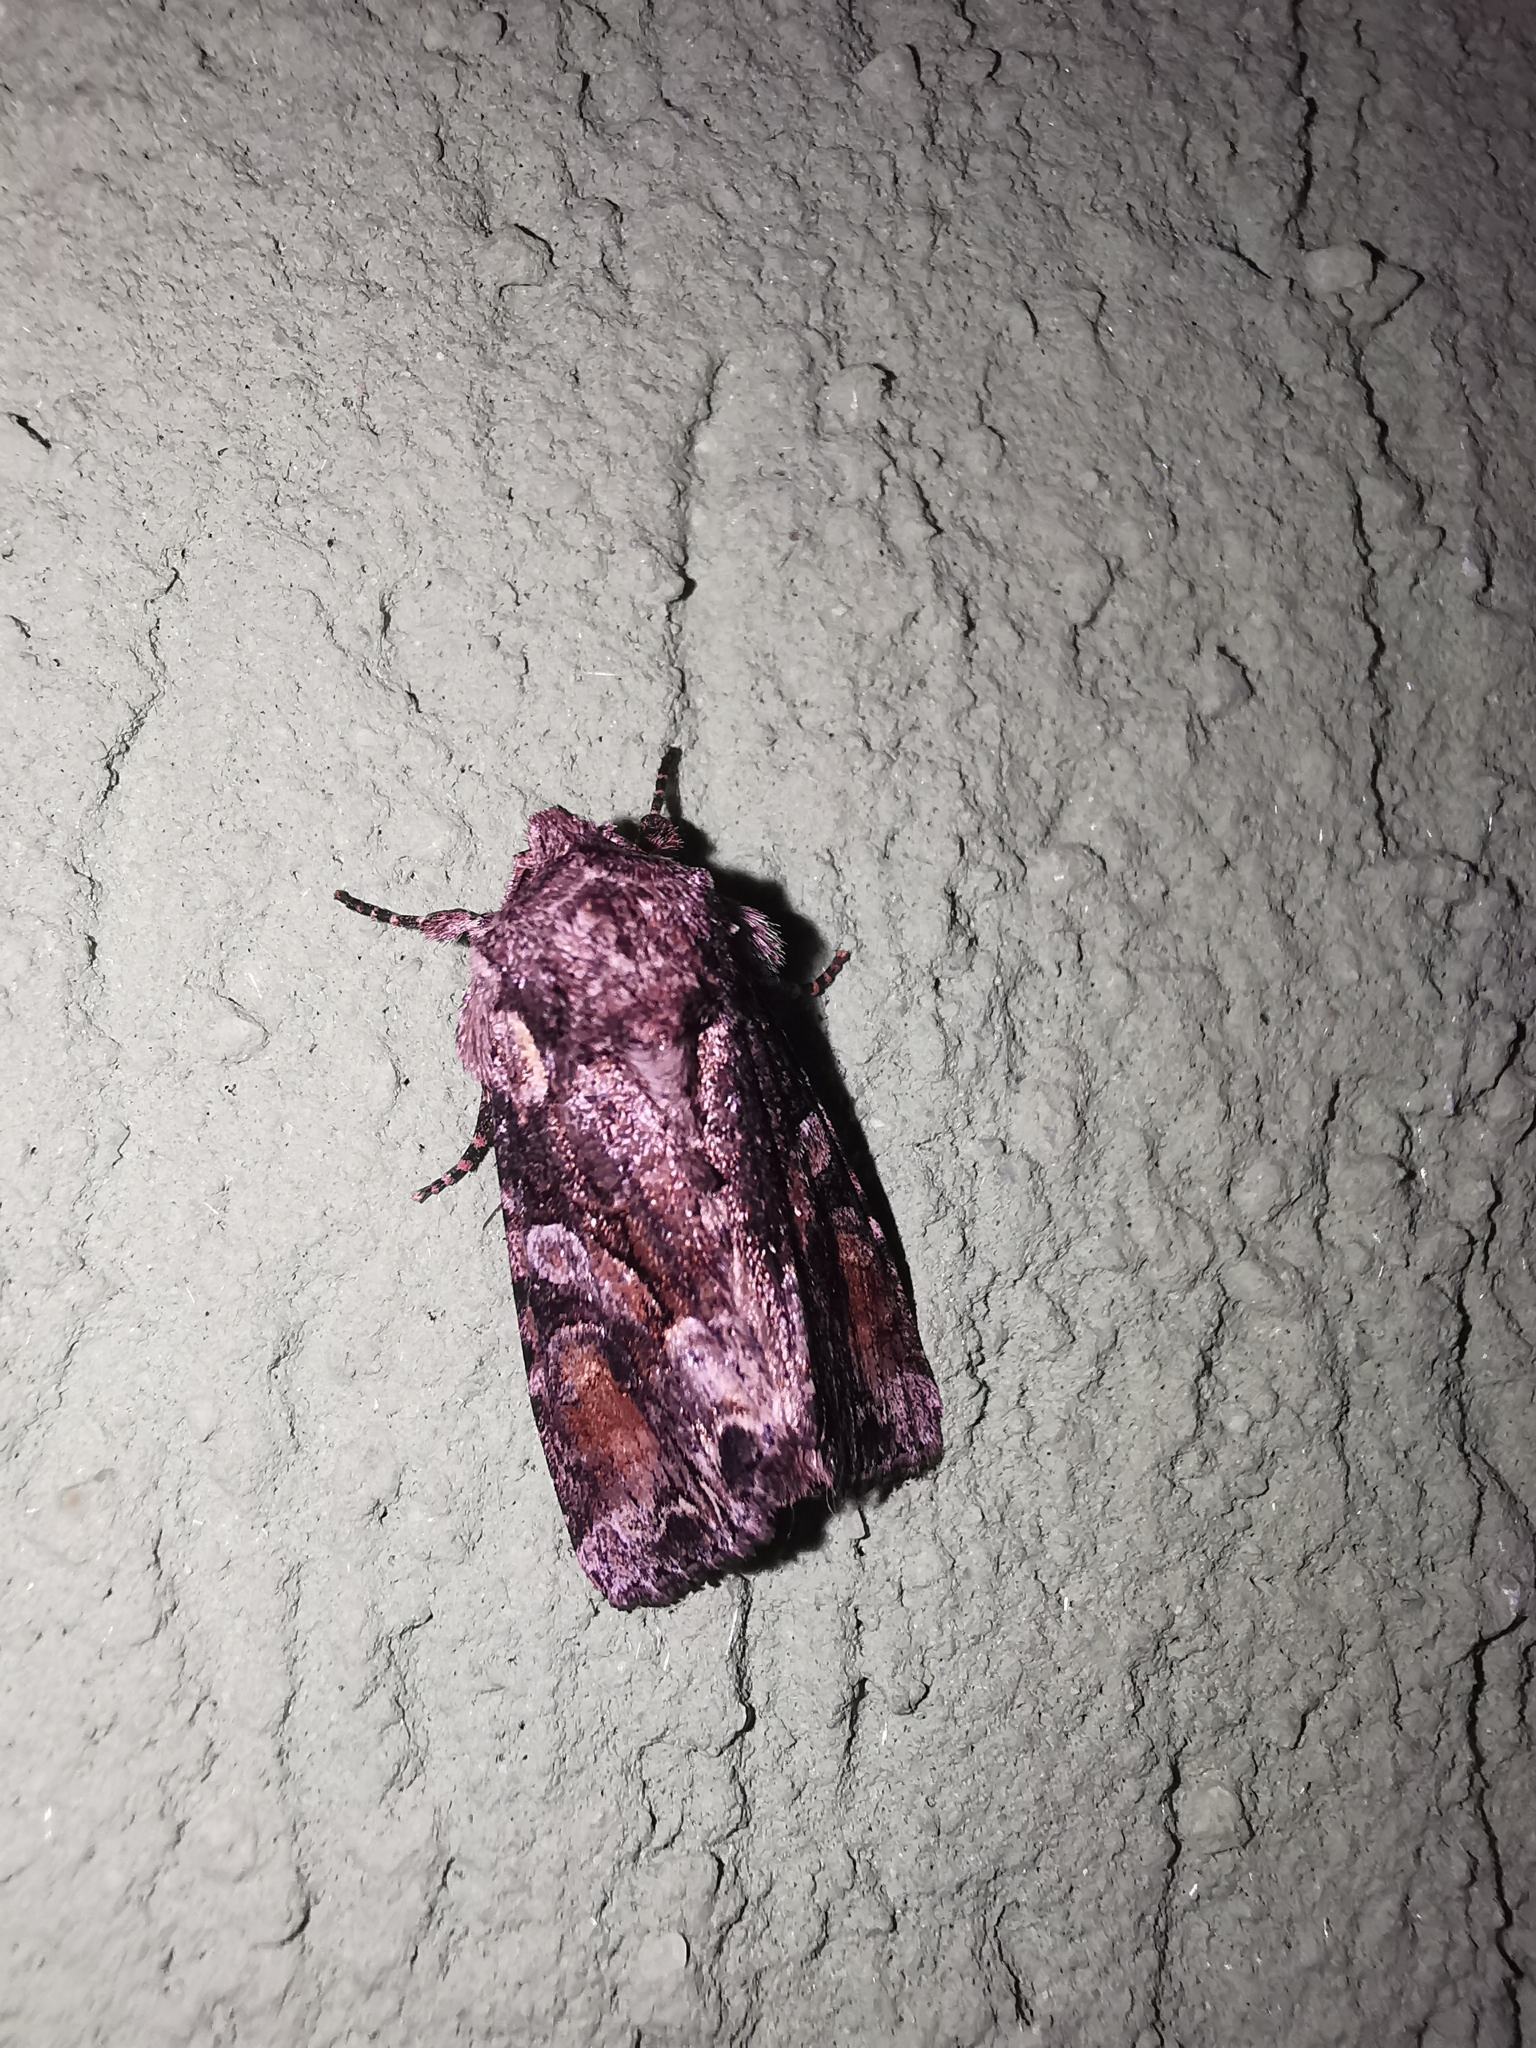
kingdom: Animalia
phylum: Arthropoda
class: Insecta
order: Lepidoptera
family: Noctuidae
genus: Lacanobia
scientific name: Lacanobia contigua
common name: Beautiful brocade
